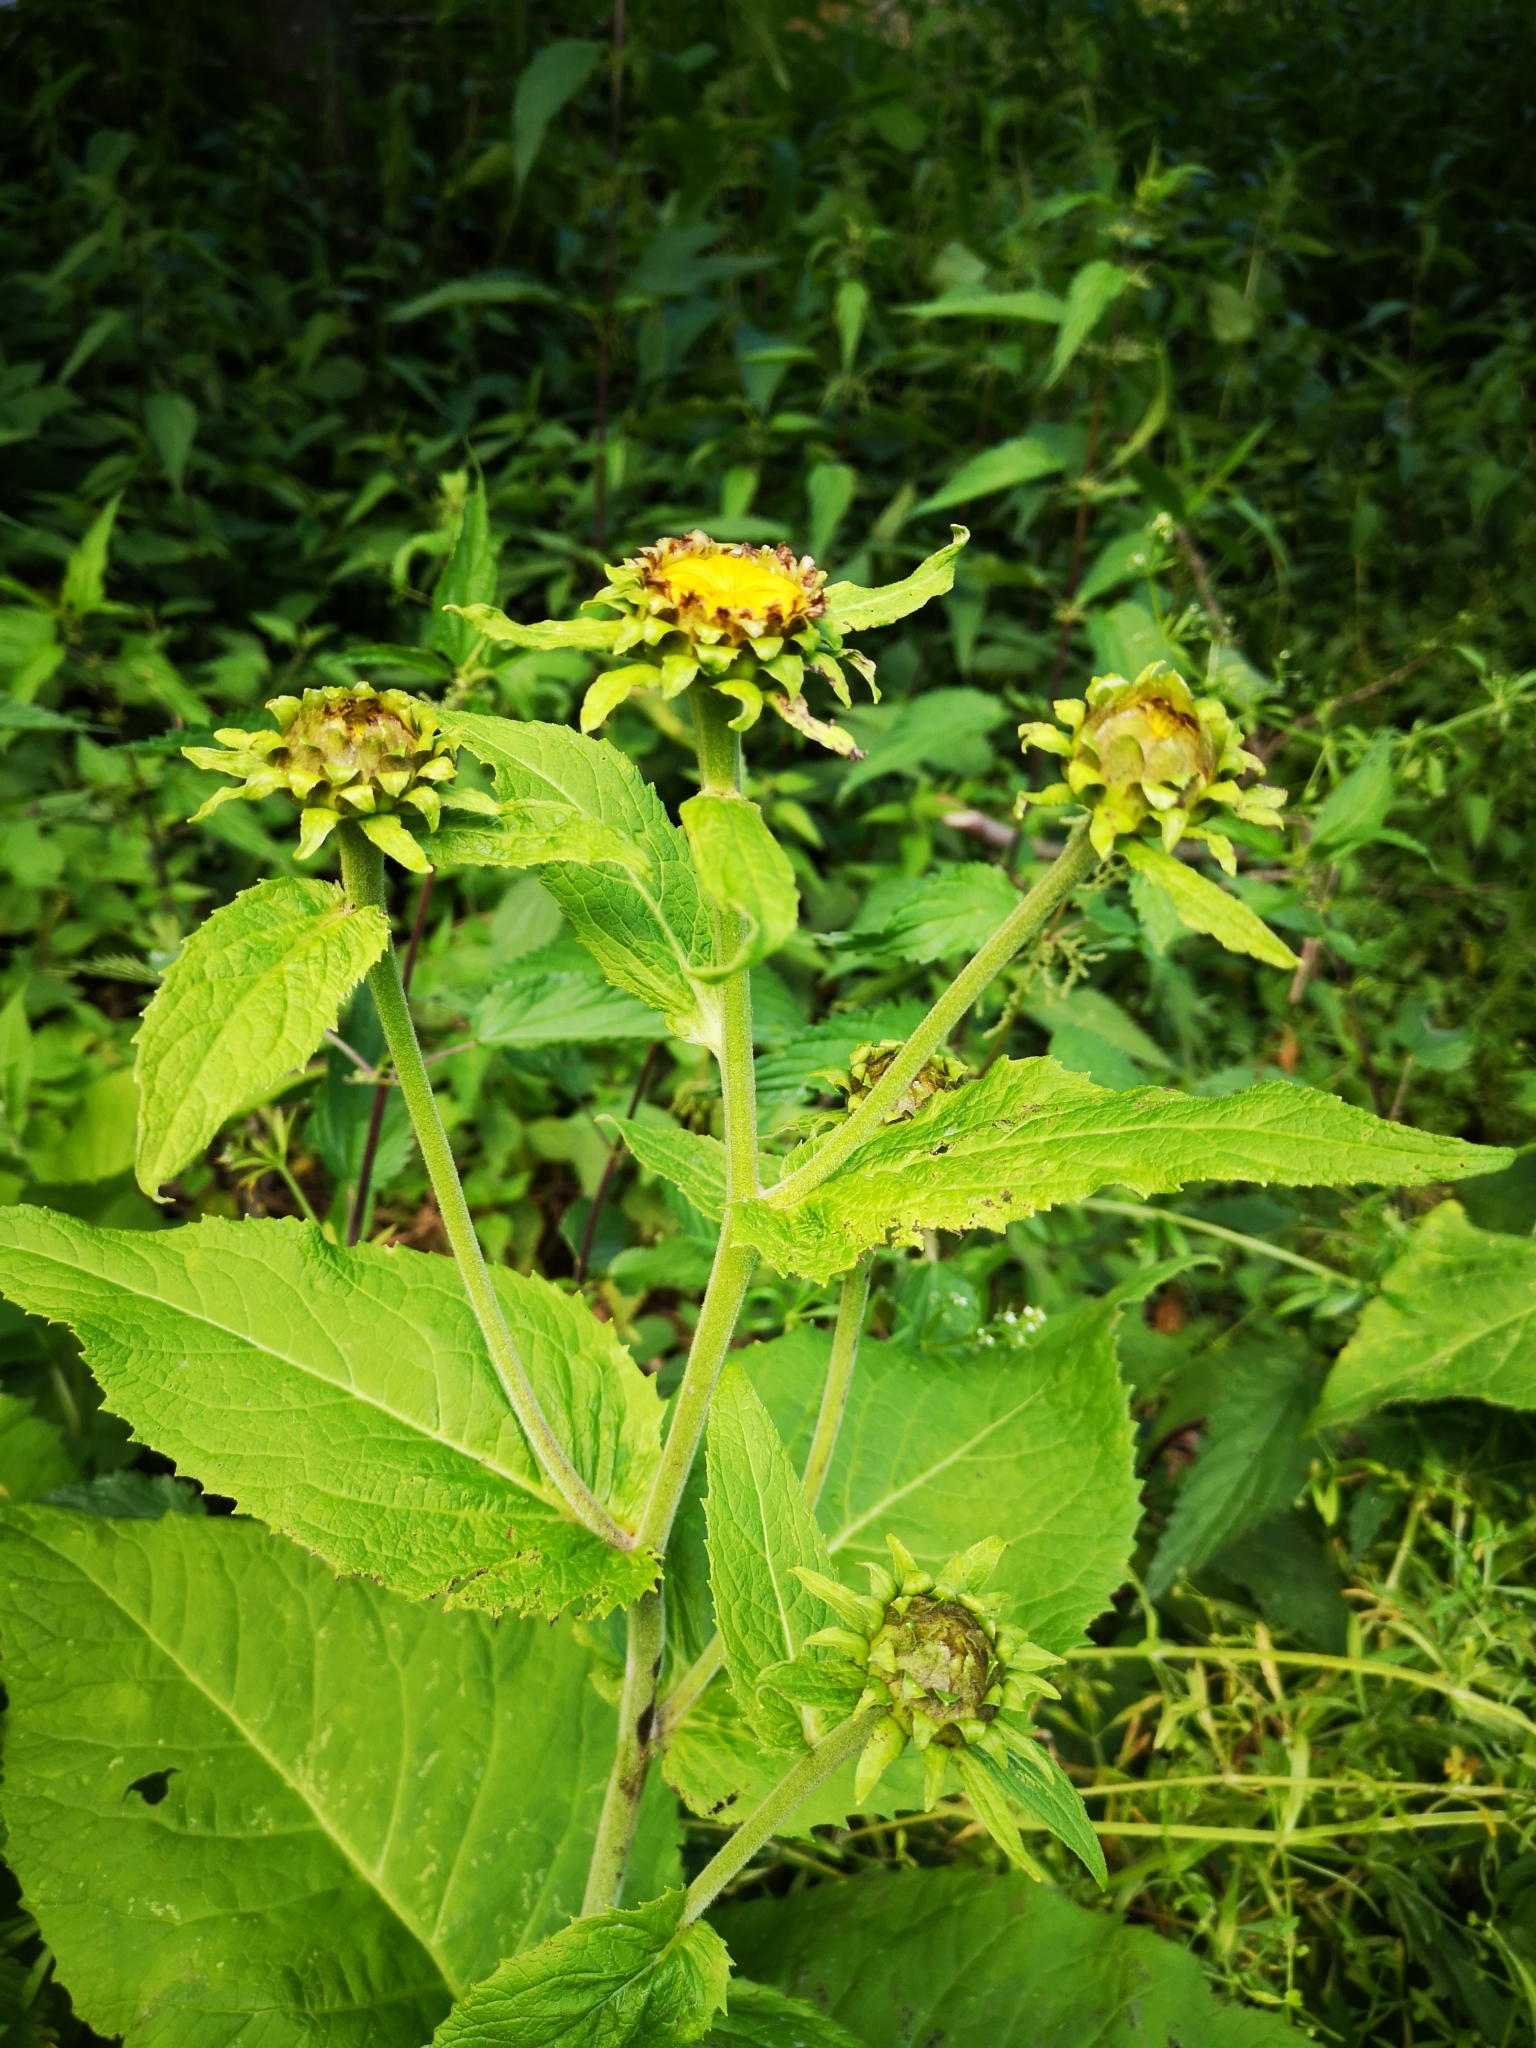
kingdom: Plantae
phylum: Tracheophyta
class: Magnoliopsida
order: Asterales
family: Asteraceae
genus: Telekia
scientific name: Telekia speciosa
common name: Yellow oxeye
